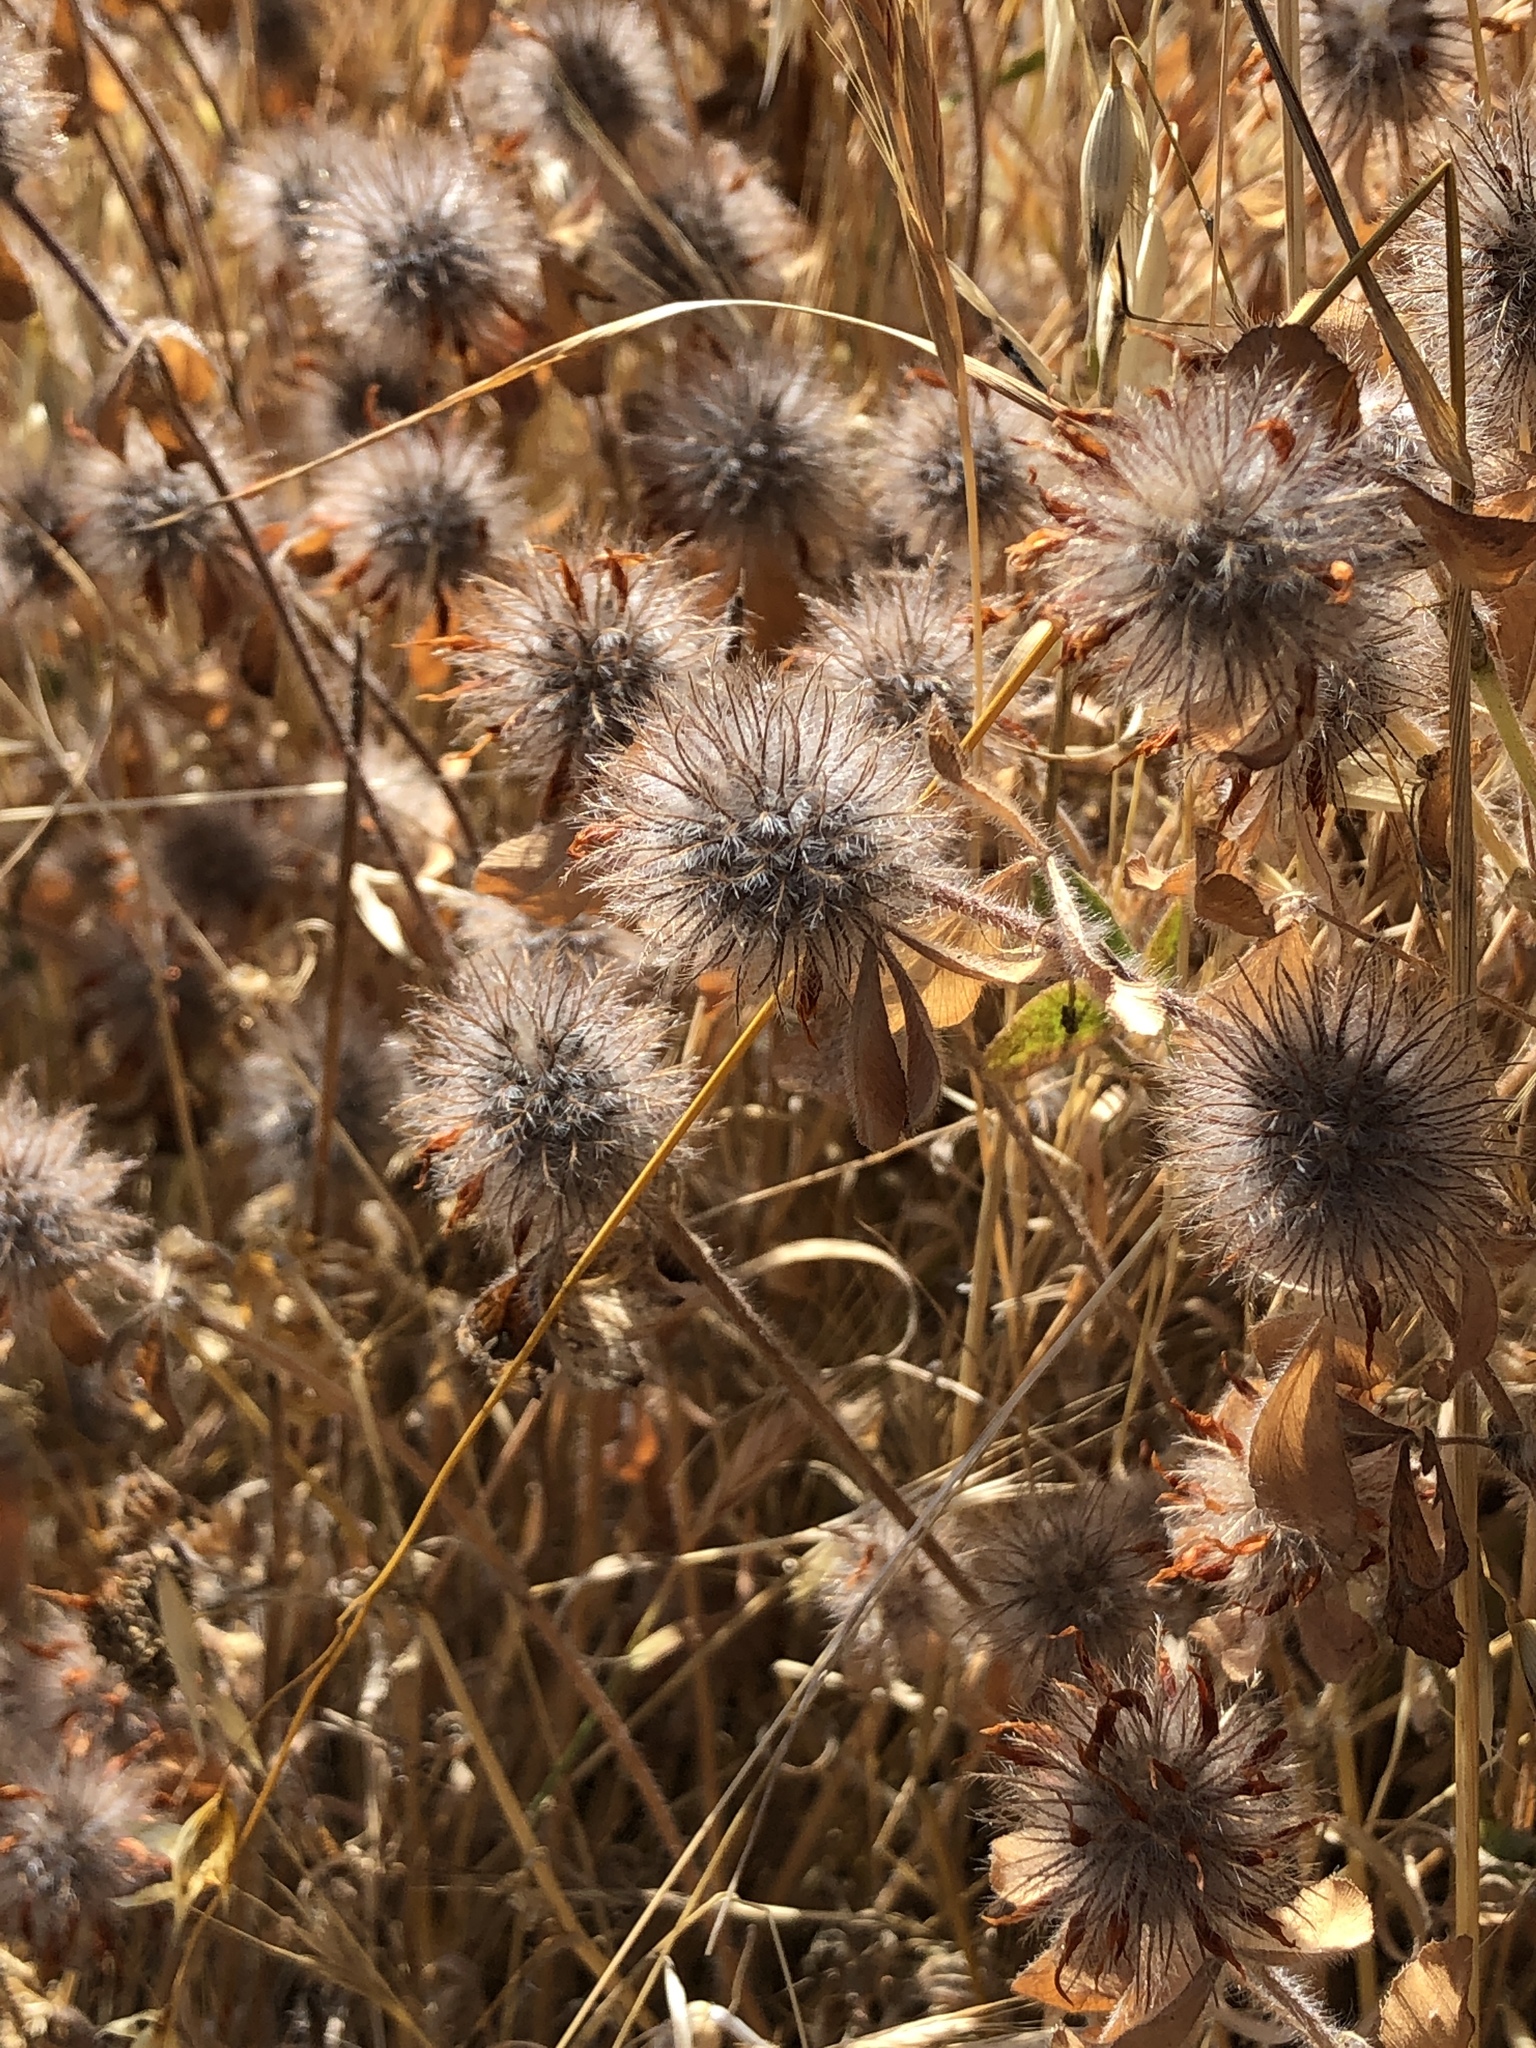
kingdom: Plantae
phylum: Tracheophyta
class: Magnoliopsida
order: Fabales
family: Fabaceae
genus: Trifolium
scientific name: Trifolium hirtum
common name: Rose clover
